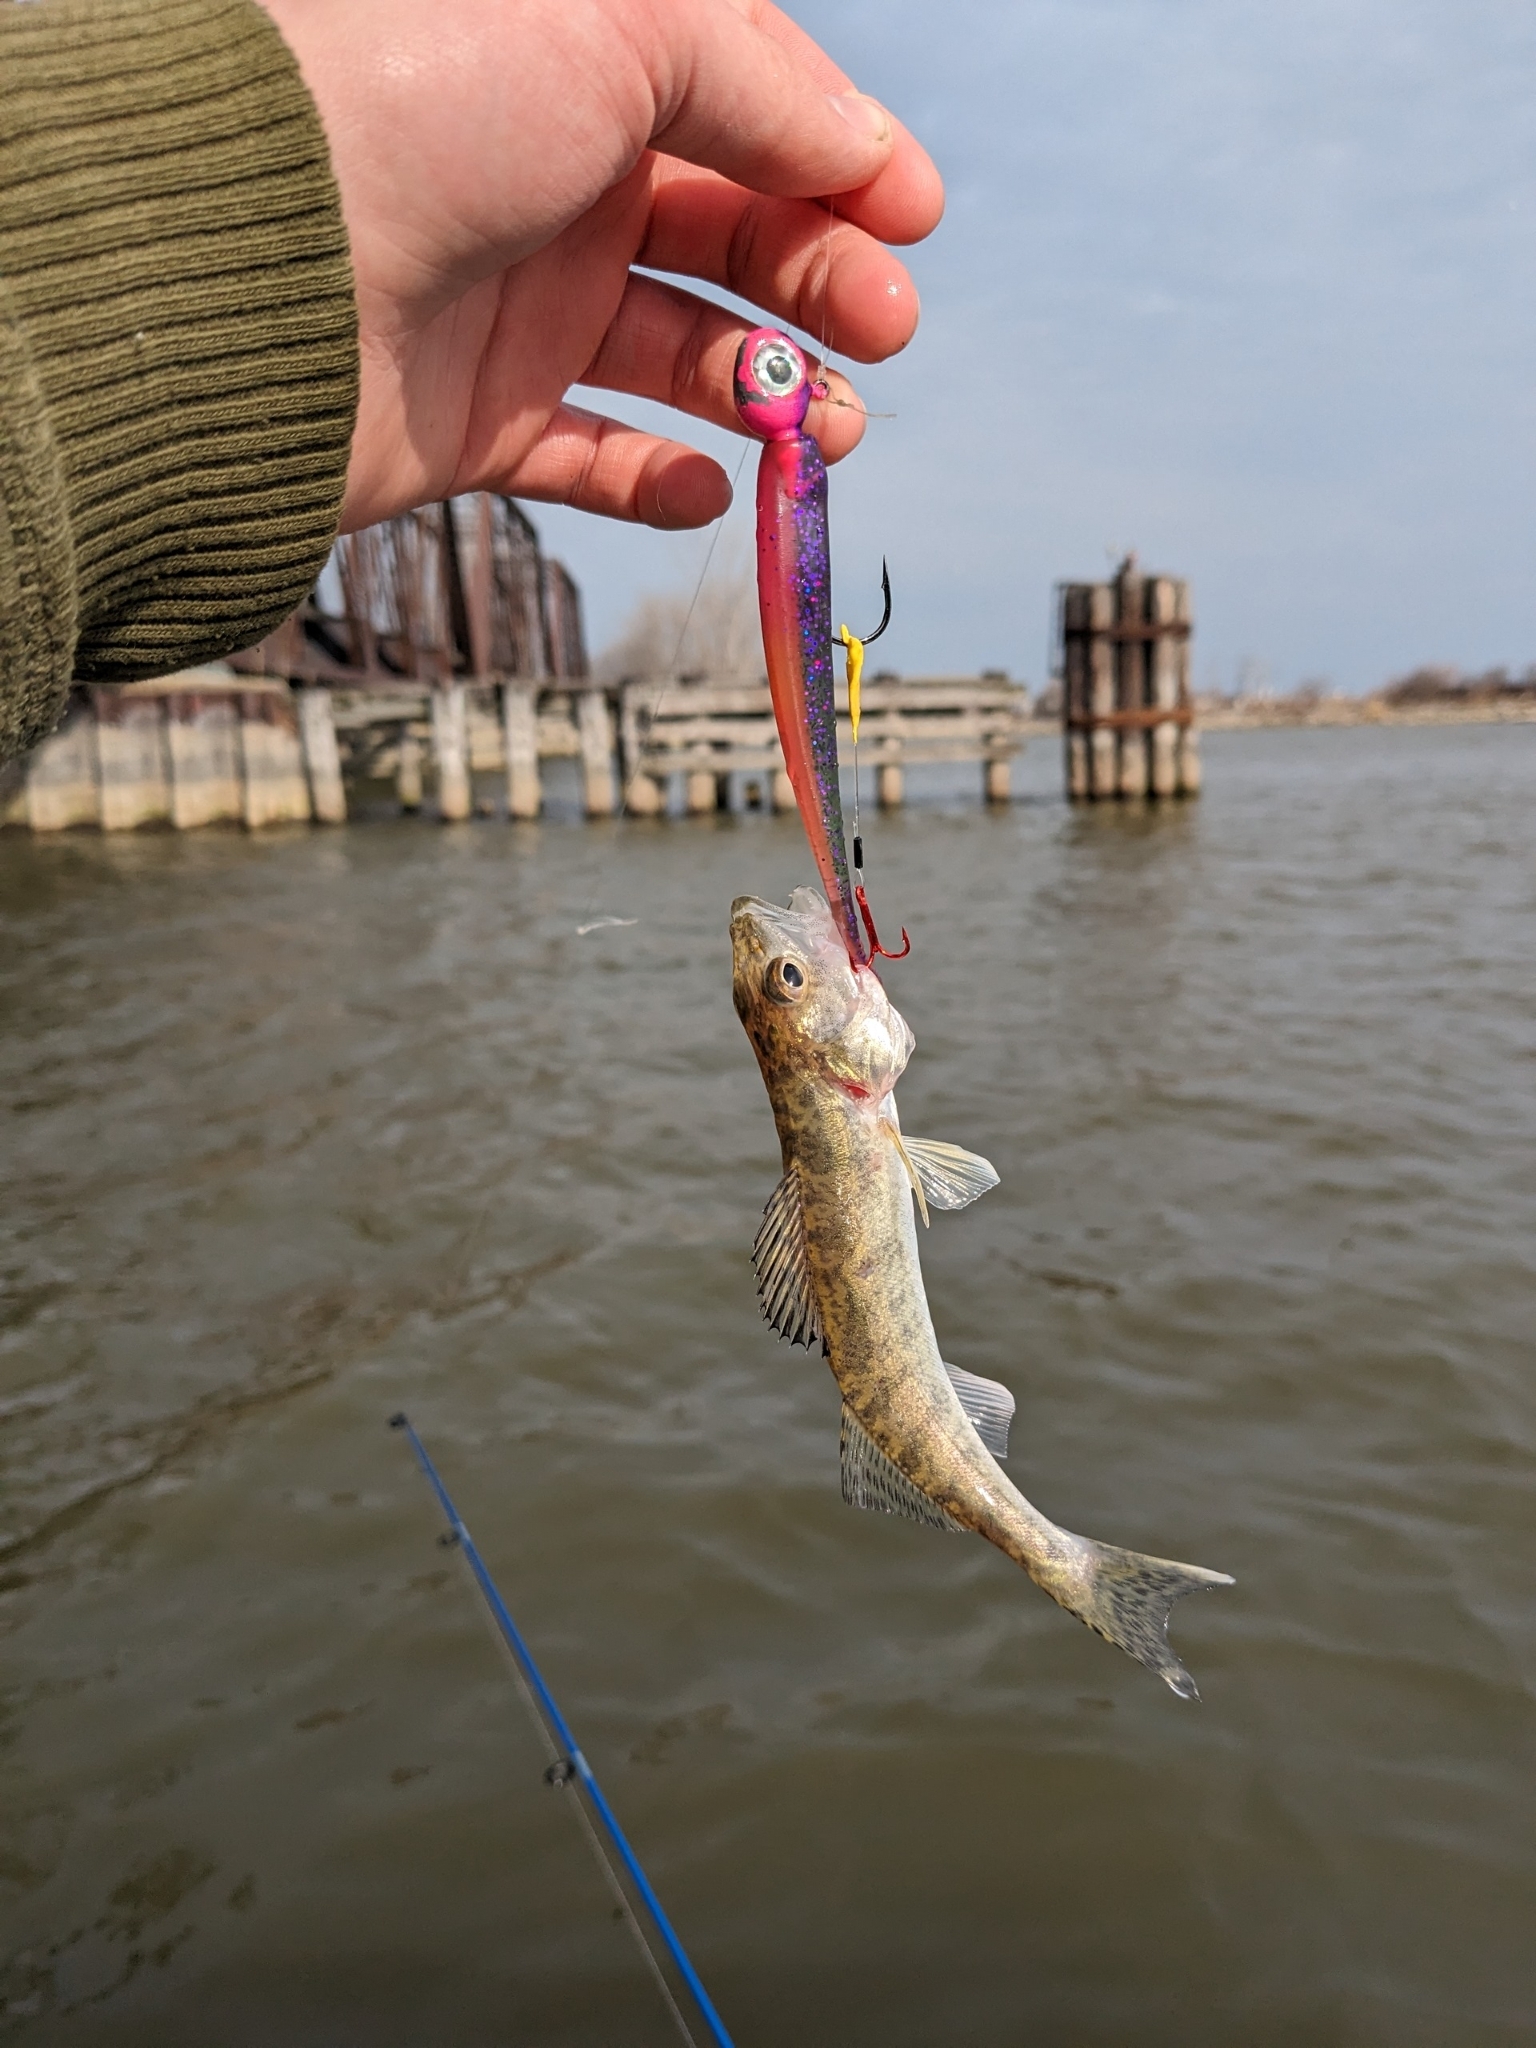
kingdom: Animalia
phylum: Chordata
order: Perciformes
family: Percidae
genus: Sander
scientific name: Sander vitreus
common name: Walleye
